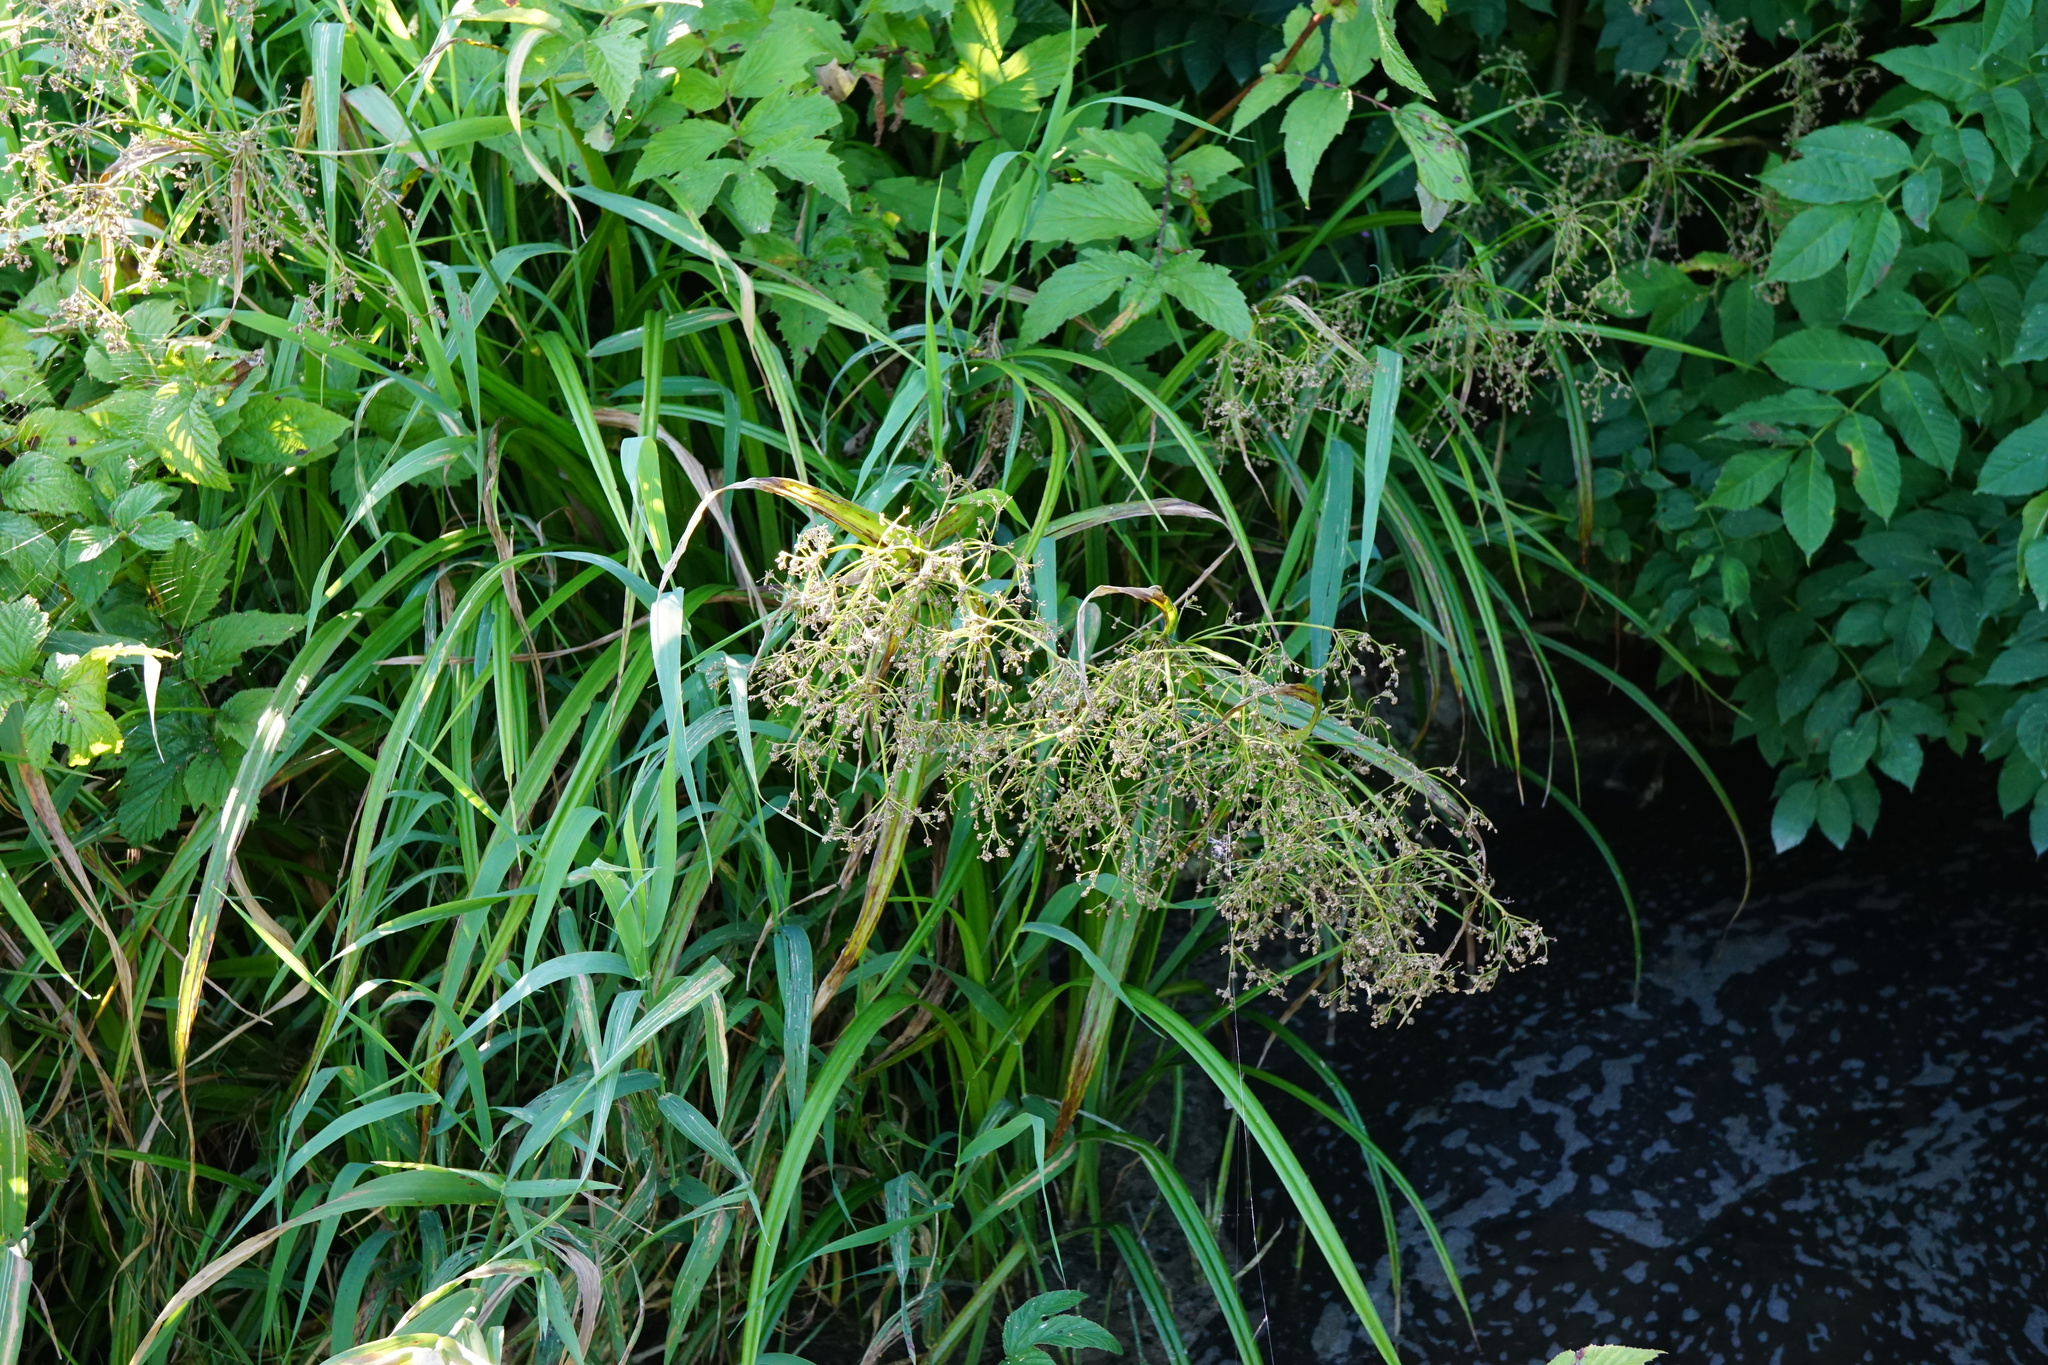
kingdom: Plantae
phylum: Tracheophyta
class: Liliopsida
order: Poales
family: Cyperaceae
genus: Scirpus
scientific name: Scirpus sylvaticus
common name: Wood club-rush
